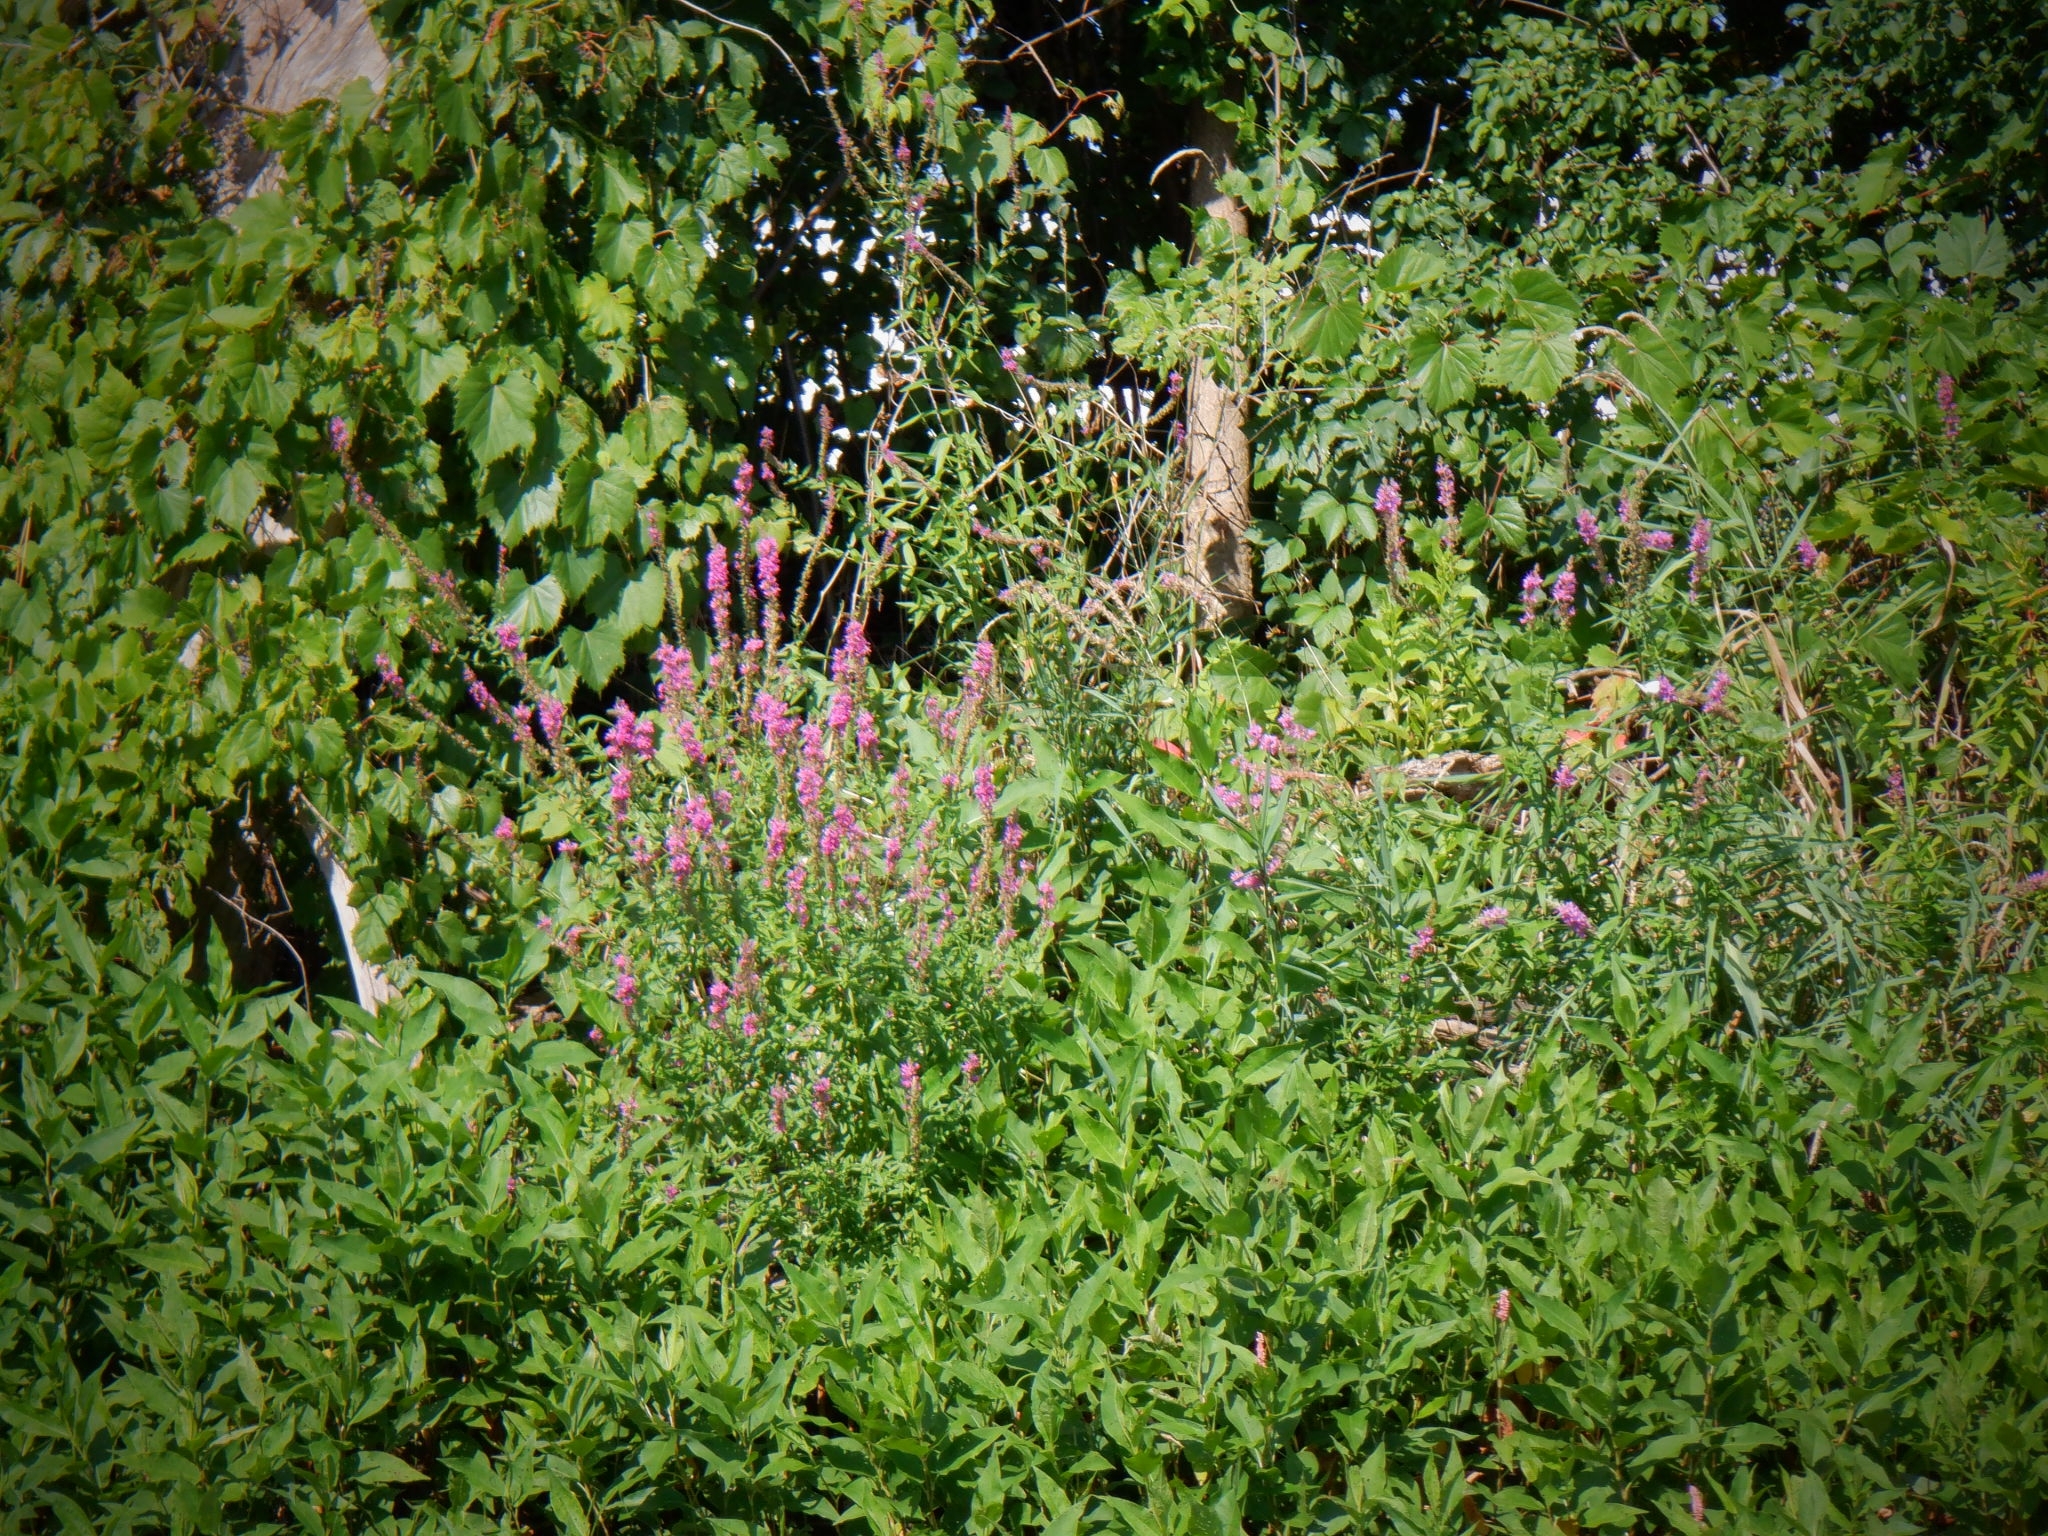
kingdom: Plantae
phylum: Tracheophyta
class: Magnoliopsida
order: Myrtales
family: Lythraceae
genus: Lythrum
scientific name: Lythrum salicaria
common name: Purple loosestrife
